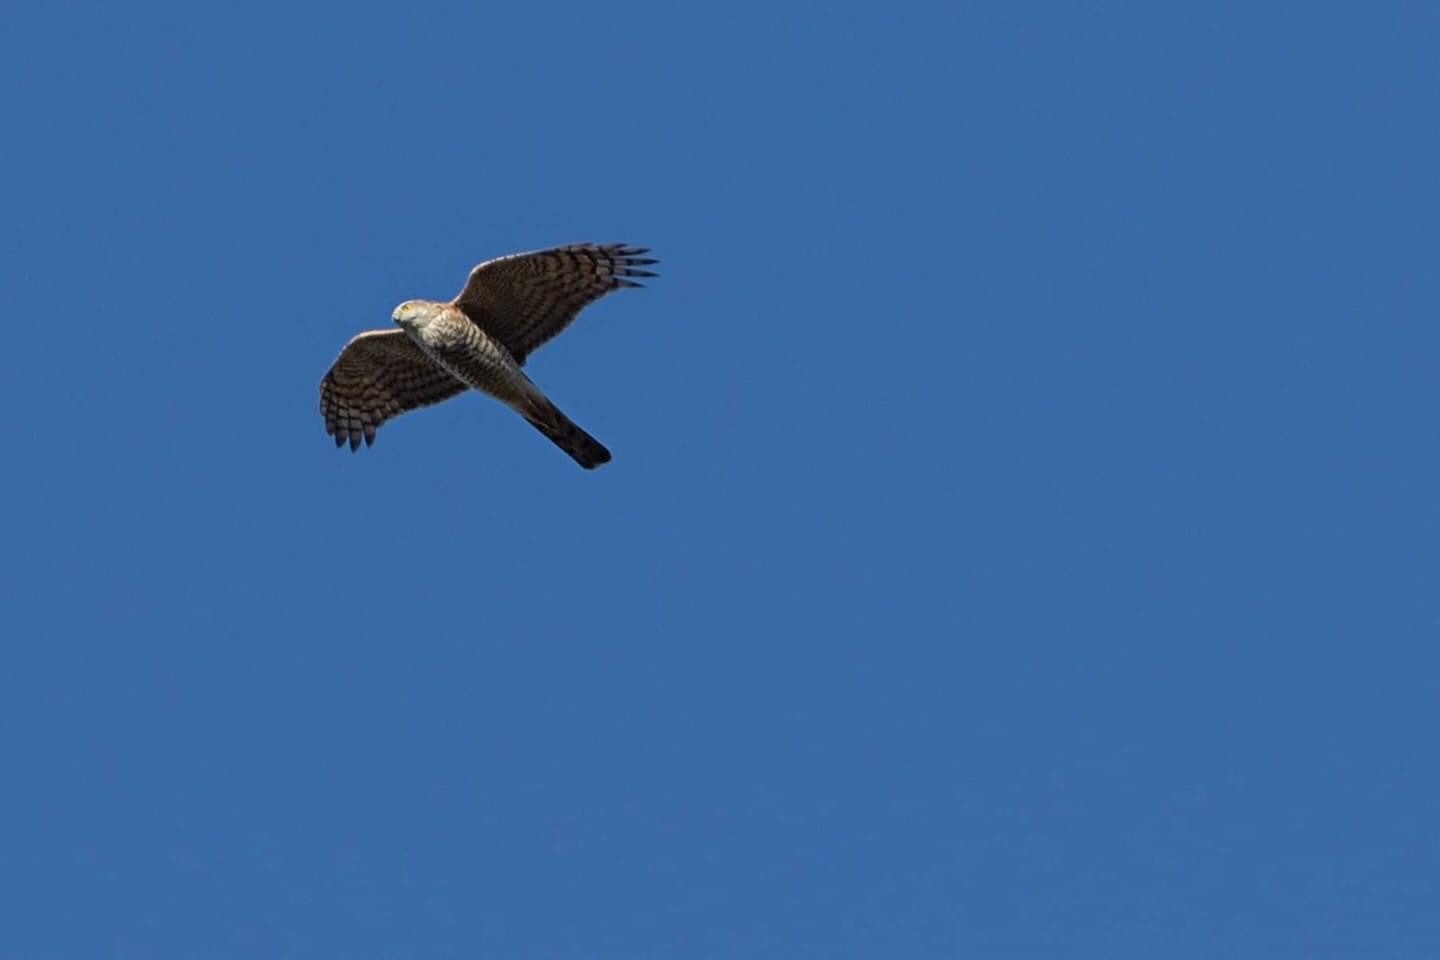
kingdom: Animalia
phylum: Chordata
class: Aves
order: Accipitriformes
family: Accipitridae
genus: Accipiter
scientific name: Accipiter nisus
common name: Eurasian sparrowhawk
